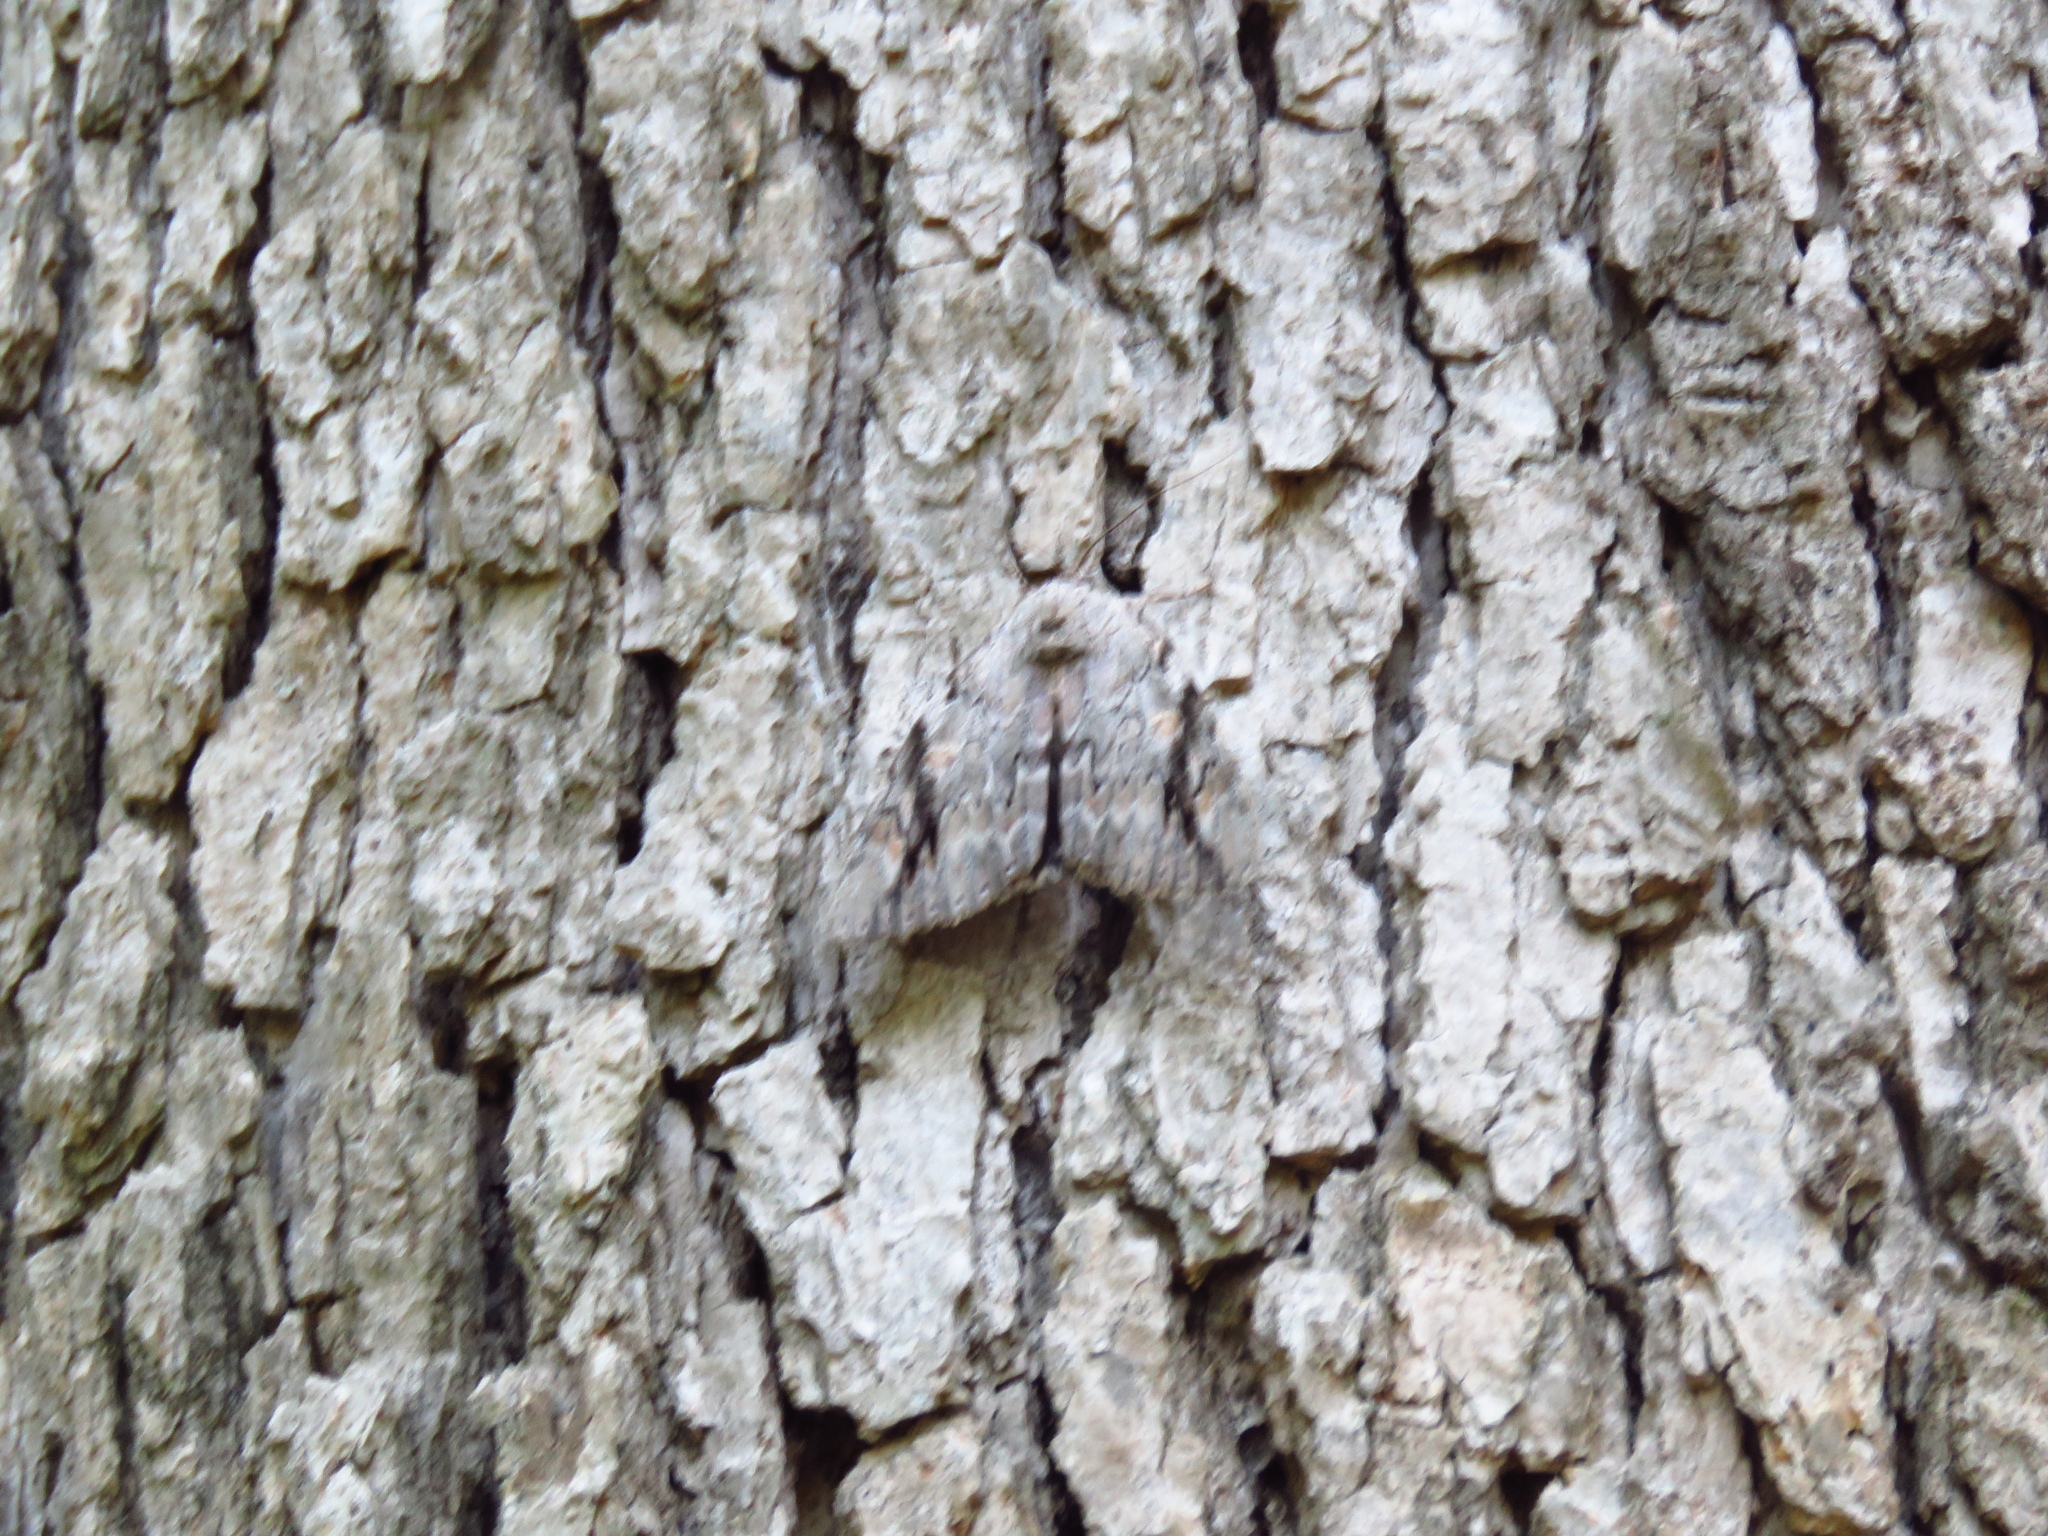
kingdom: Animalia
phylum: Arthropoda
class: Insecta
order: Lepidoptera
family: Erebidae
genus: Catocala
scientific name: Catocala maestosa
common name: Sad underwing
